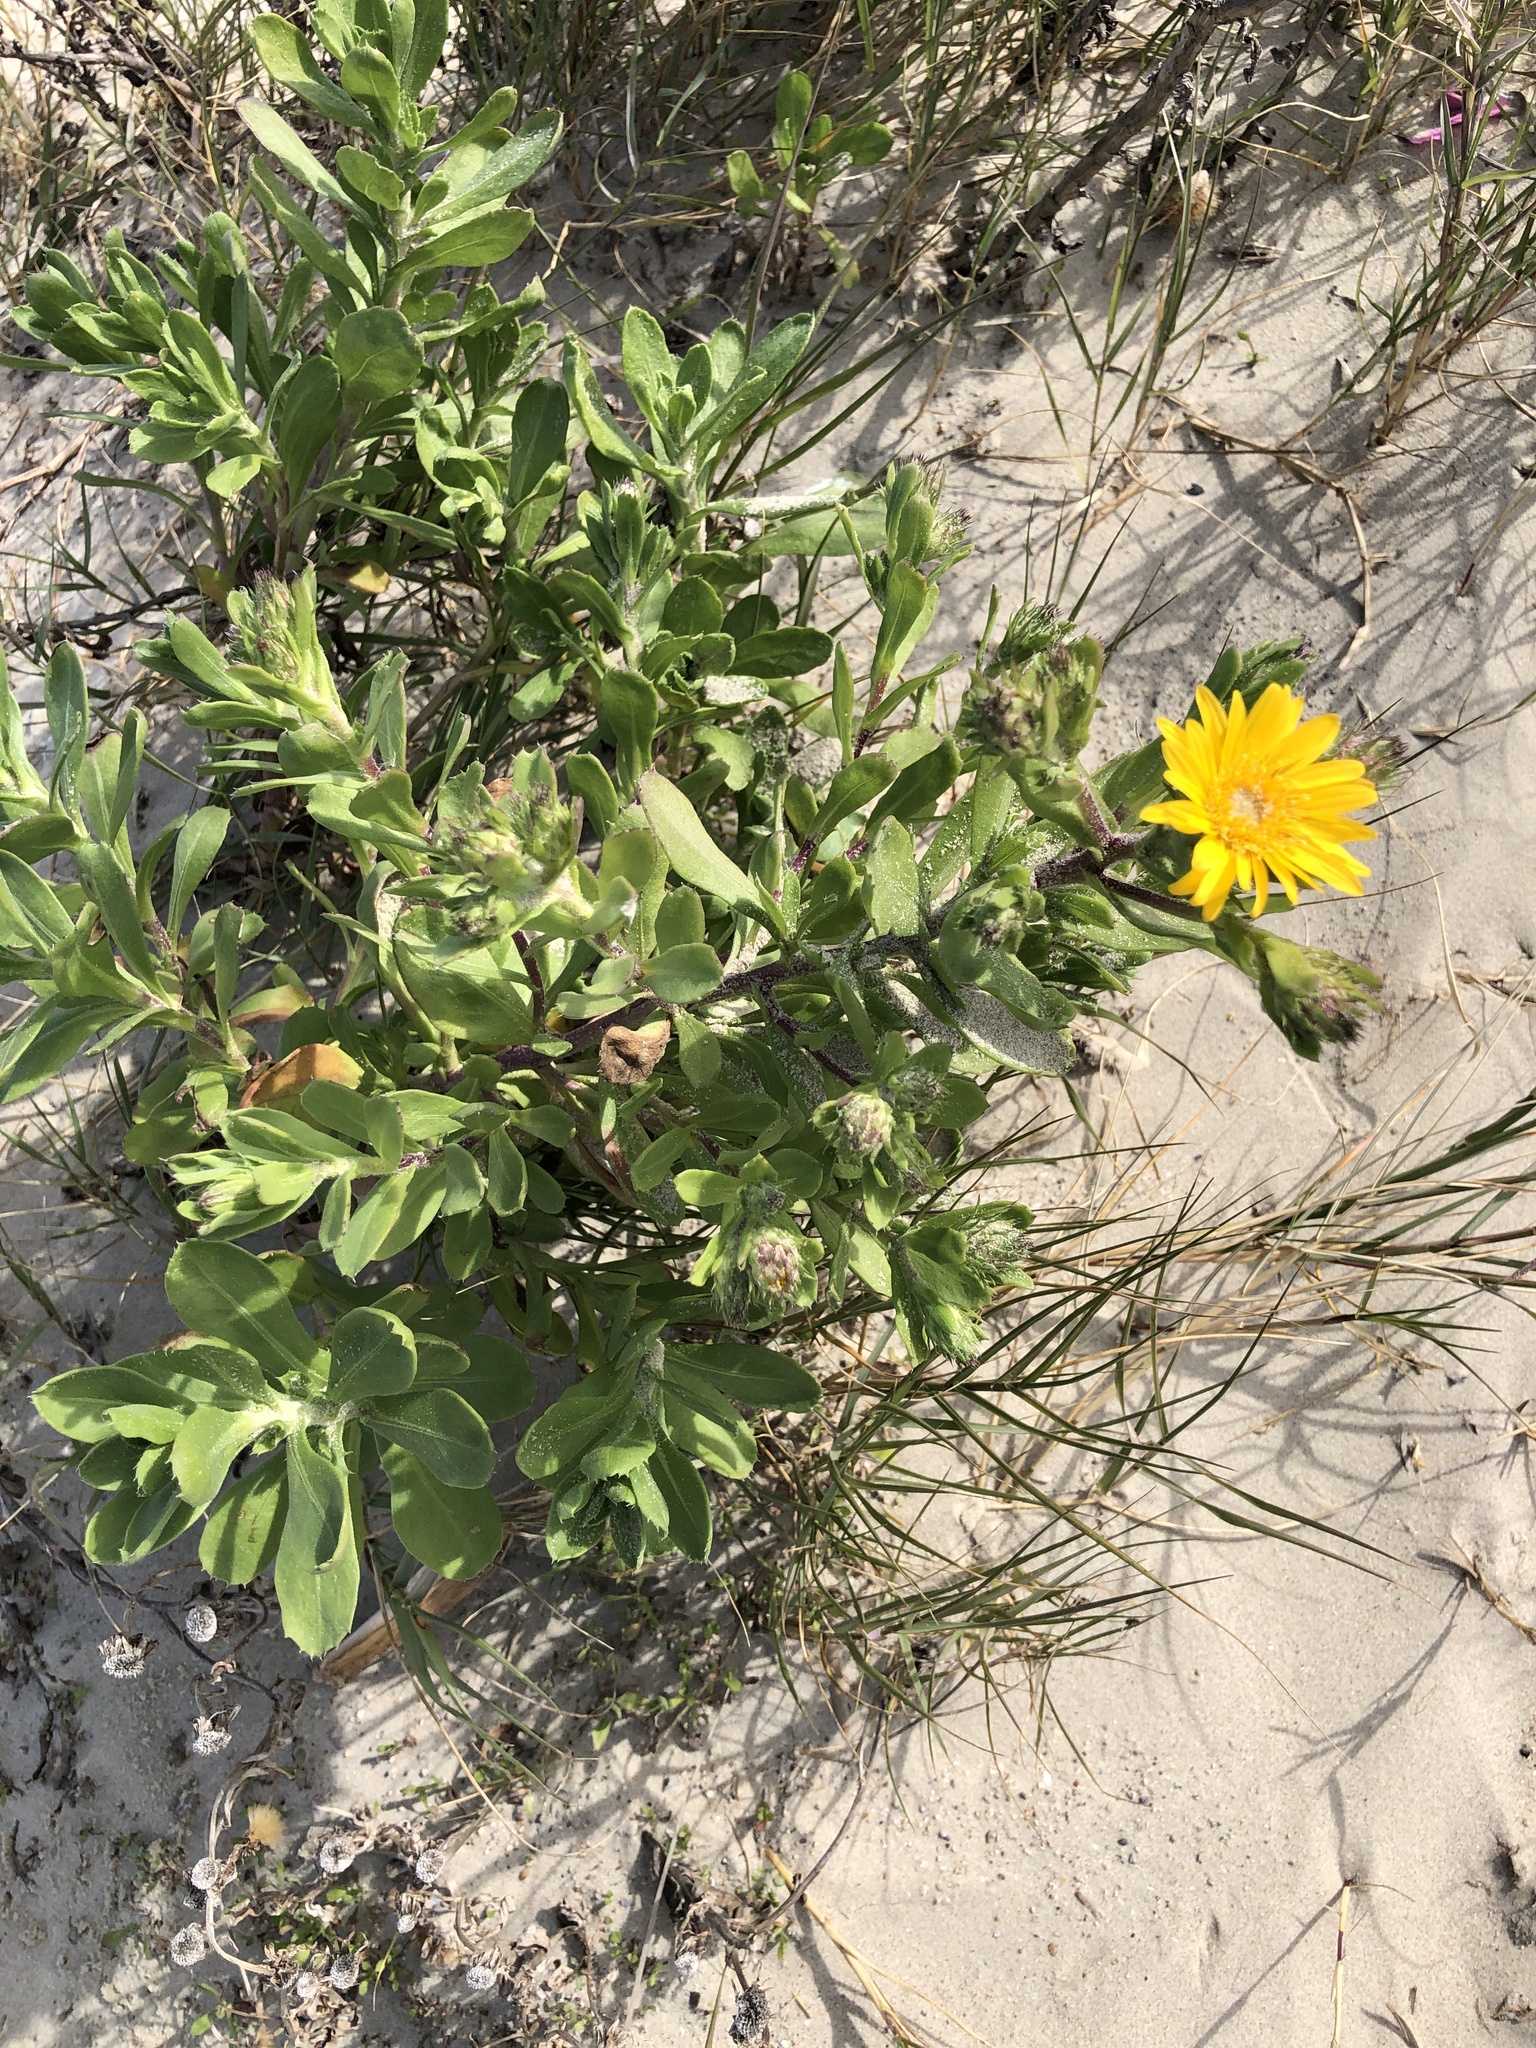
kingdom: Plantae
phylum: Tracheophyta
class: Magnoliopsida
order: Asterales
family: Asteraceae
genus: Rayjacksonia
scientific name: Rayjacksonia phyllocephala
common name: Gulf coast camphor daisy
